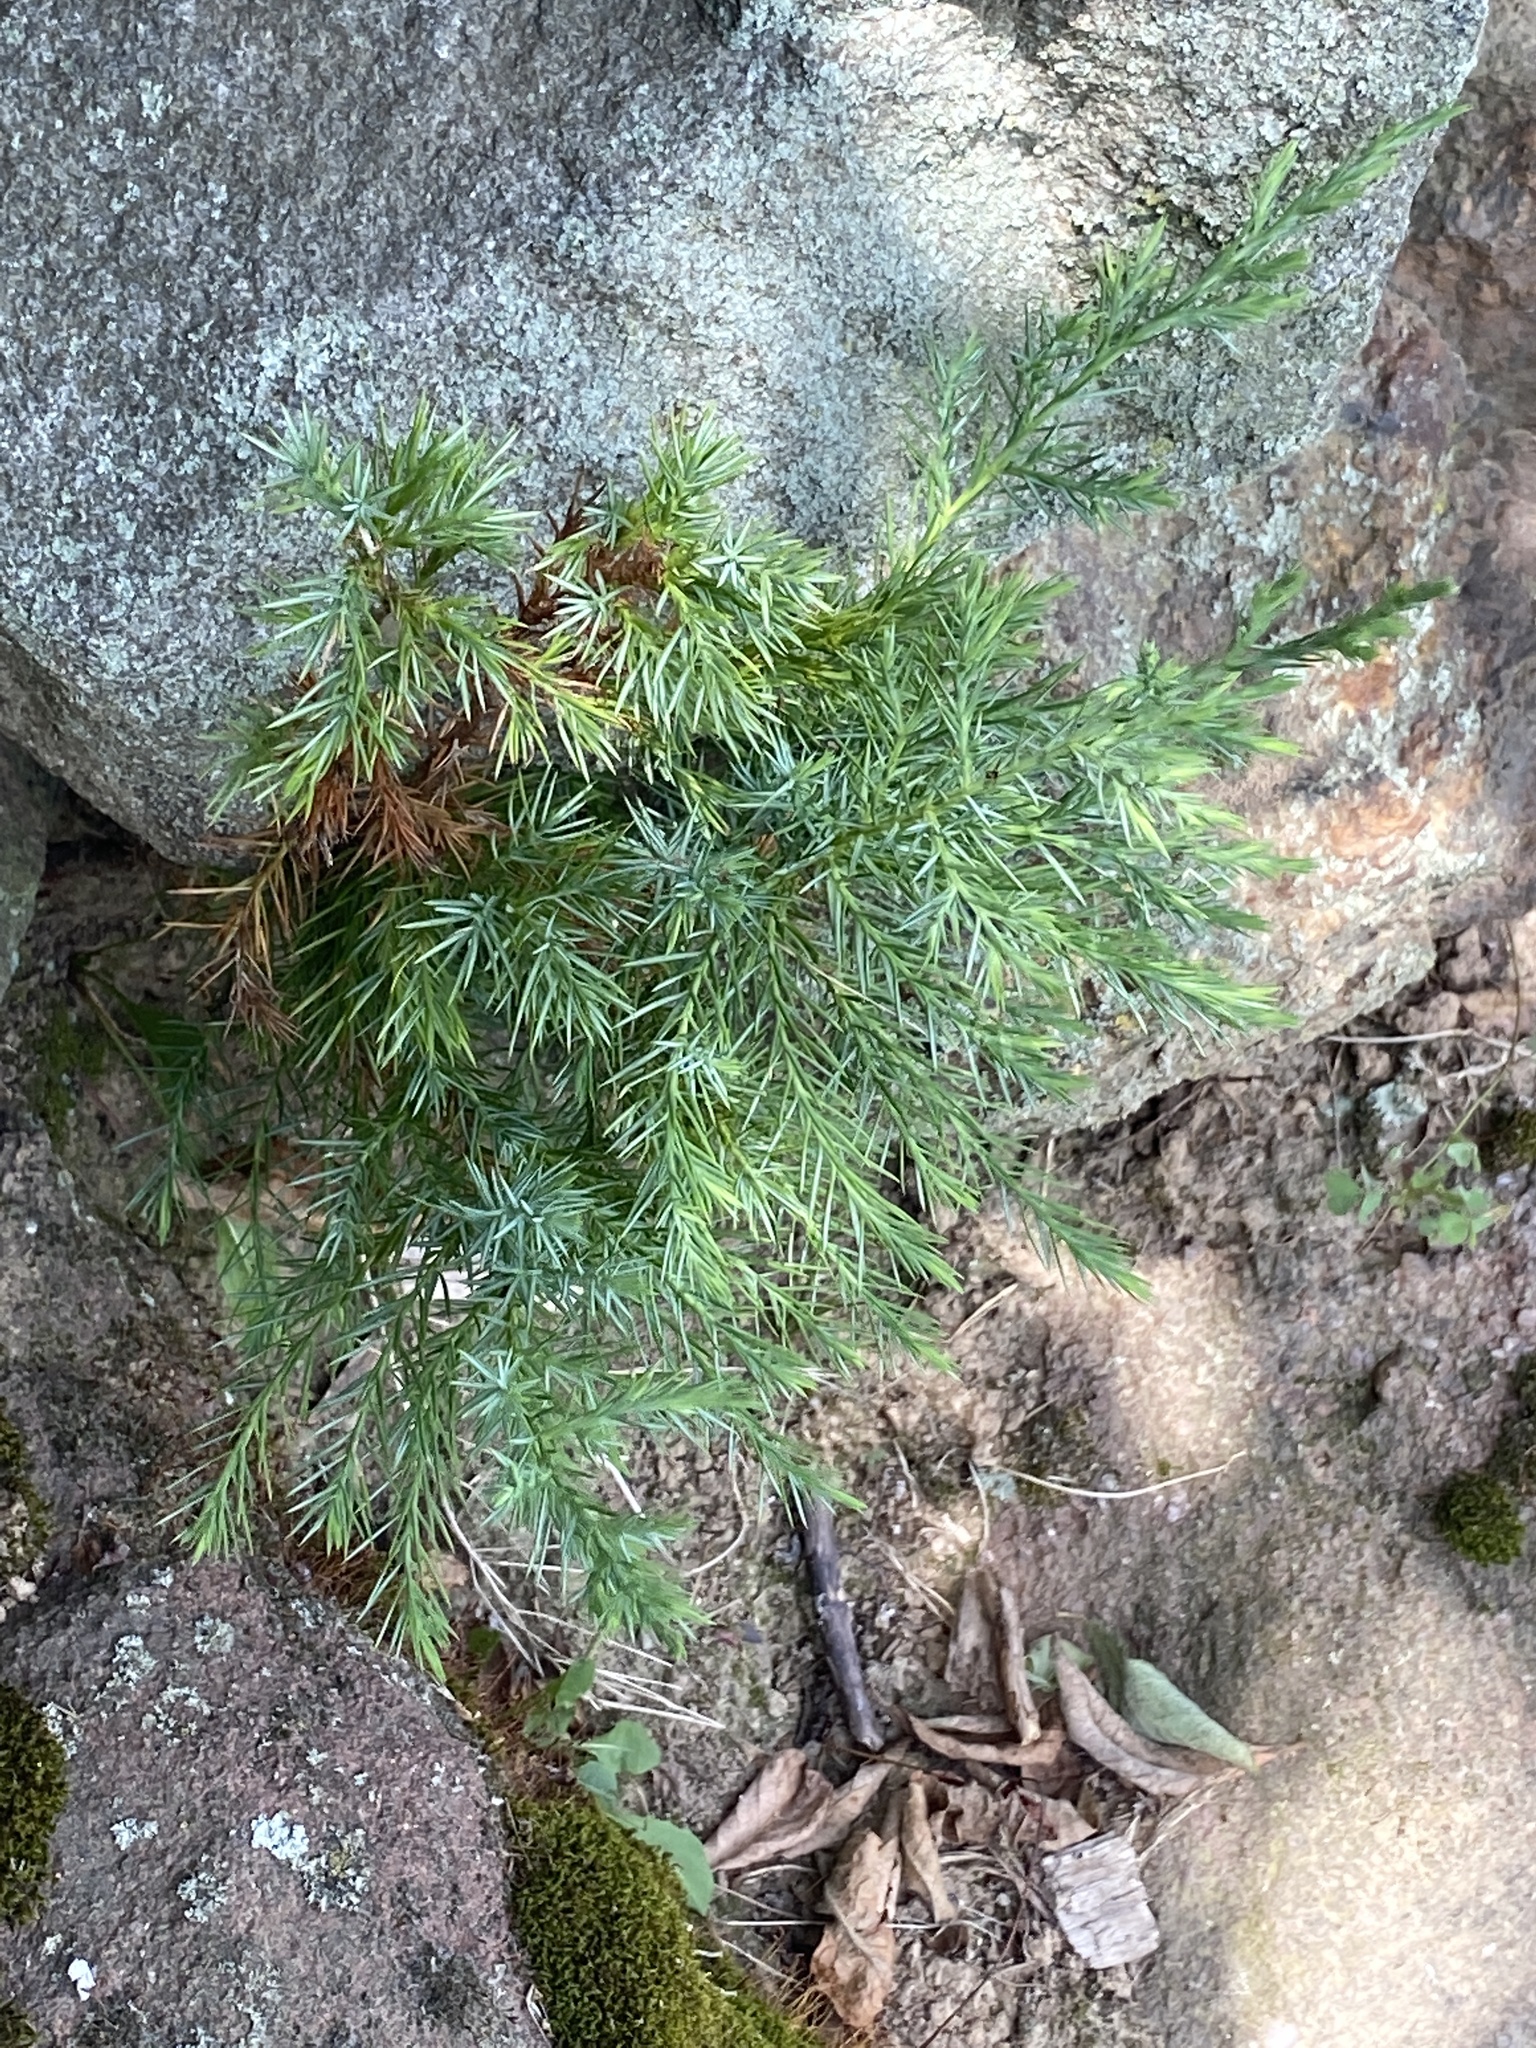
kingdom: Plantae
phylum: Tracheophyta
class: Pinopsida
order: Pinales
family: Cupressaceae
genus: Juniperus
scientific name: Juniperus virginiana
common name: Red juniper
